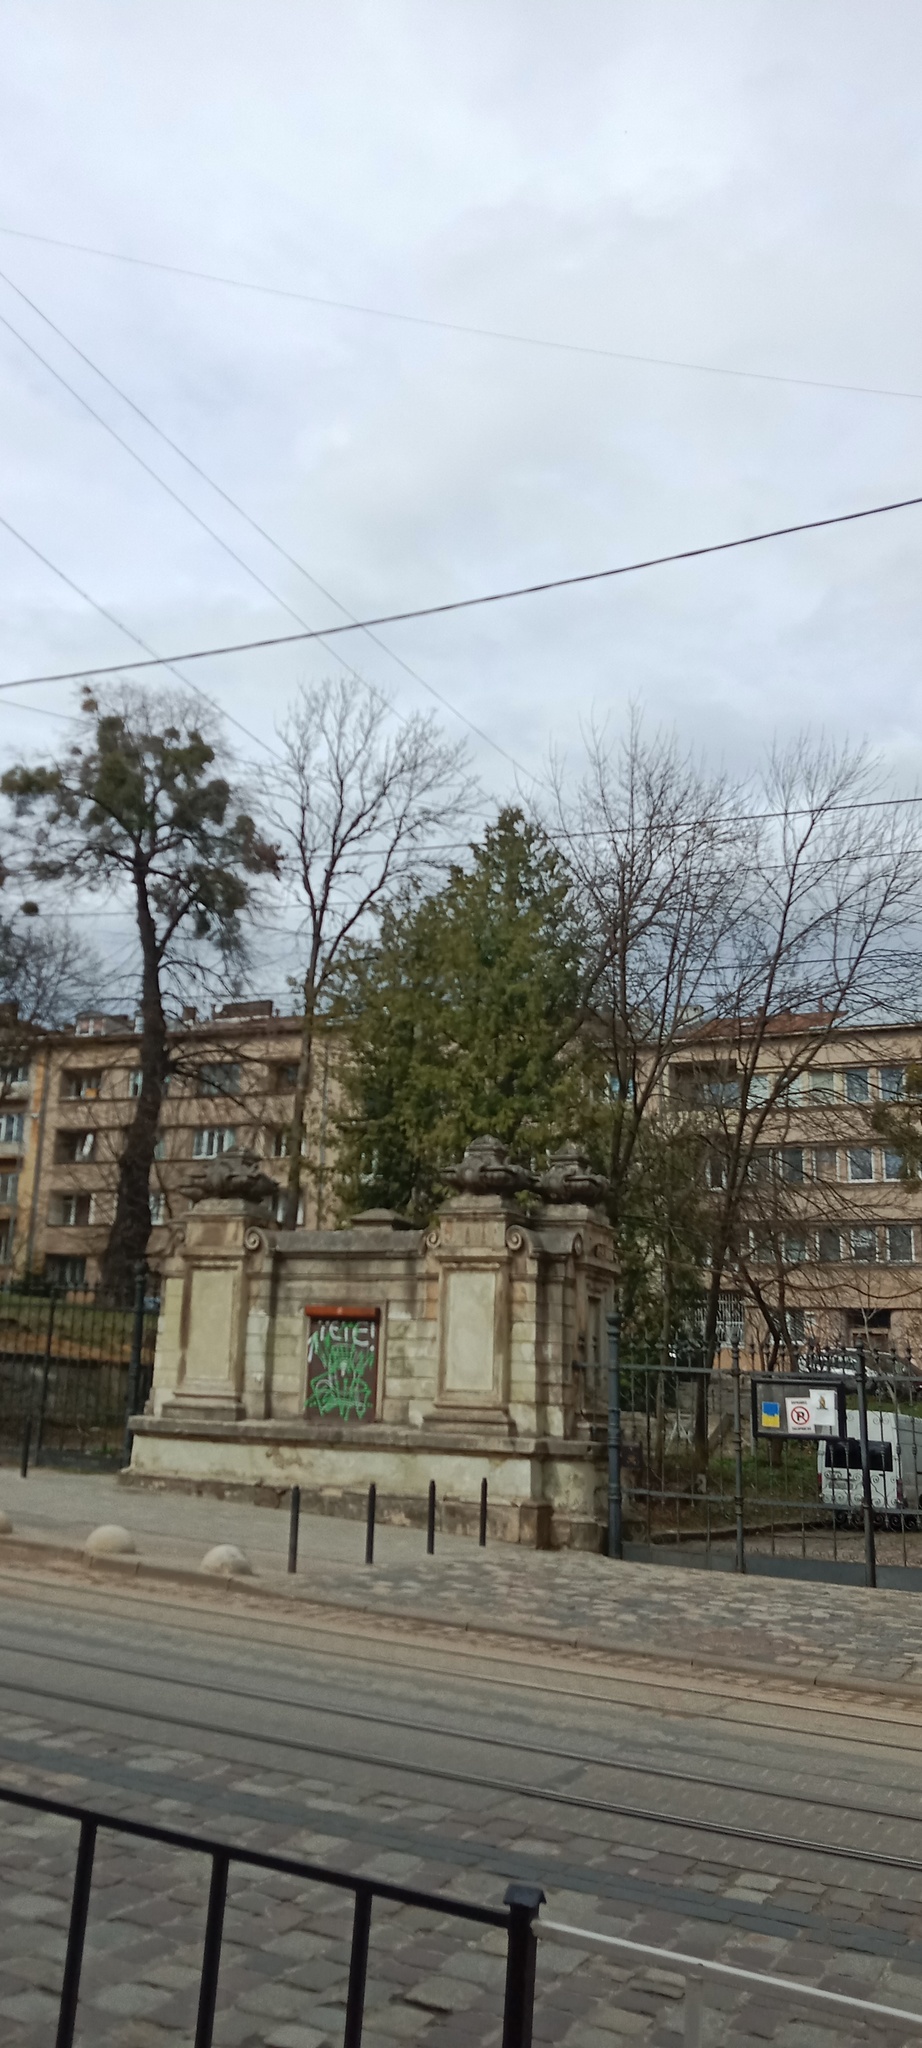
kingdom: Plantae
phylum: Tracheophyta
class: Magnoliopsida
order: Santalales
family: Viscaceae
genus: Viscum
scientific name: Viscum album
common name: Mistletoe
